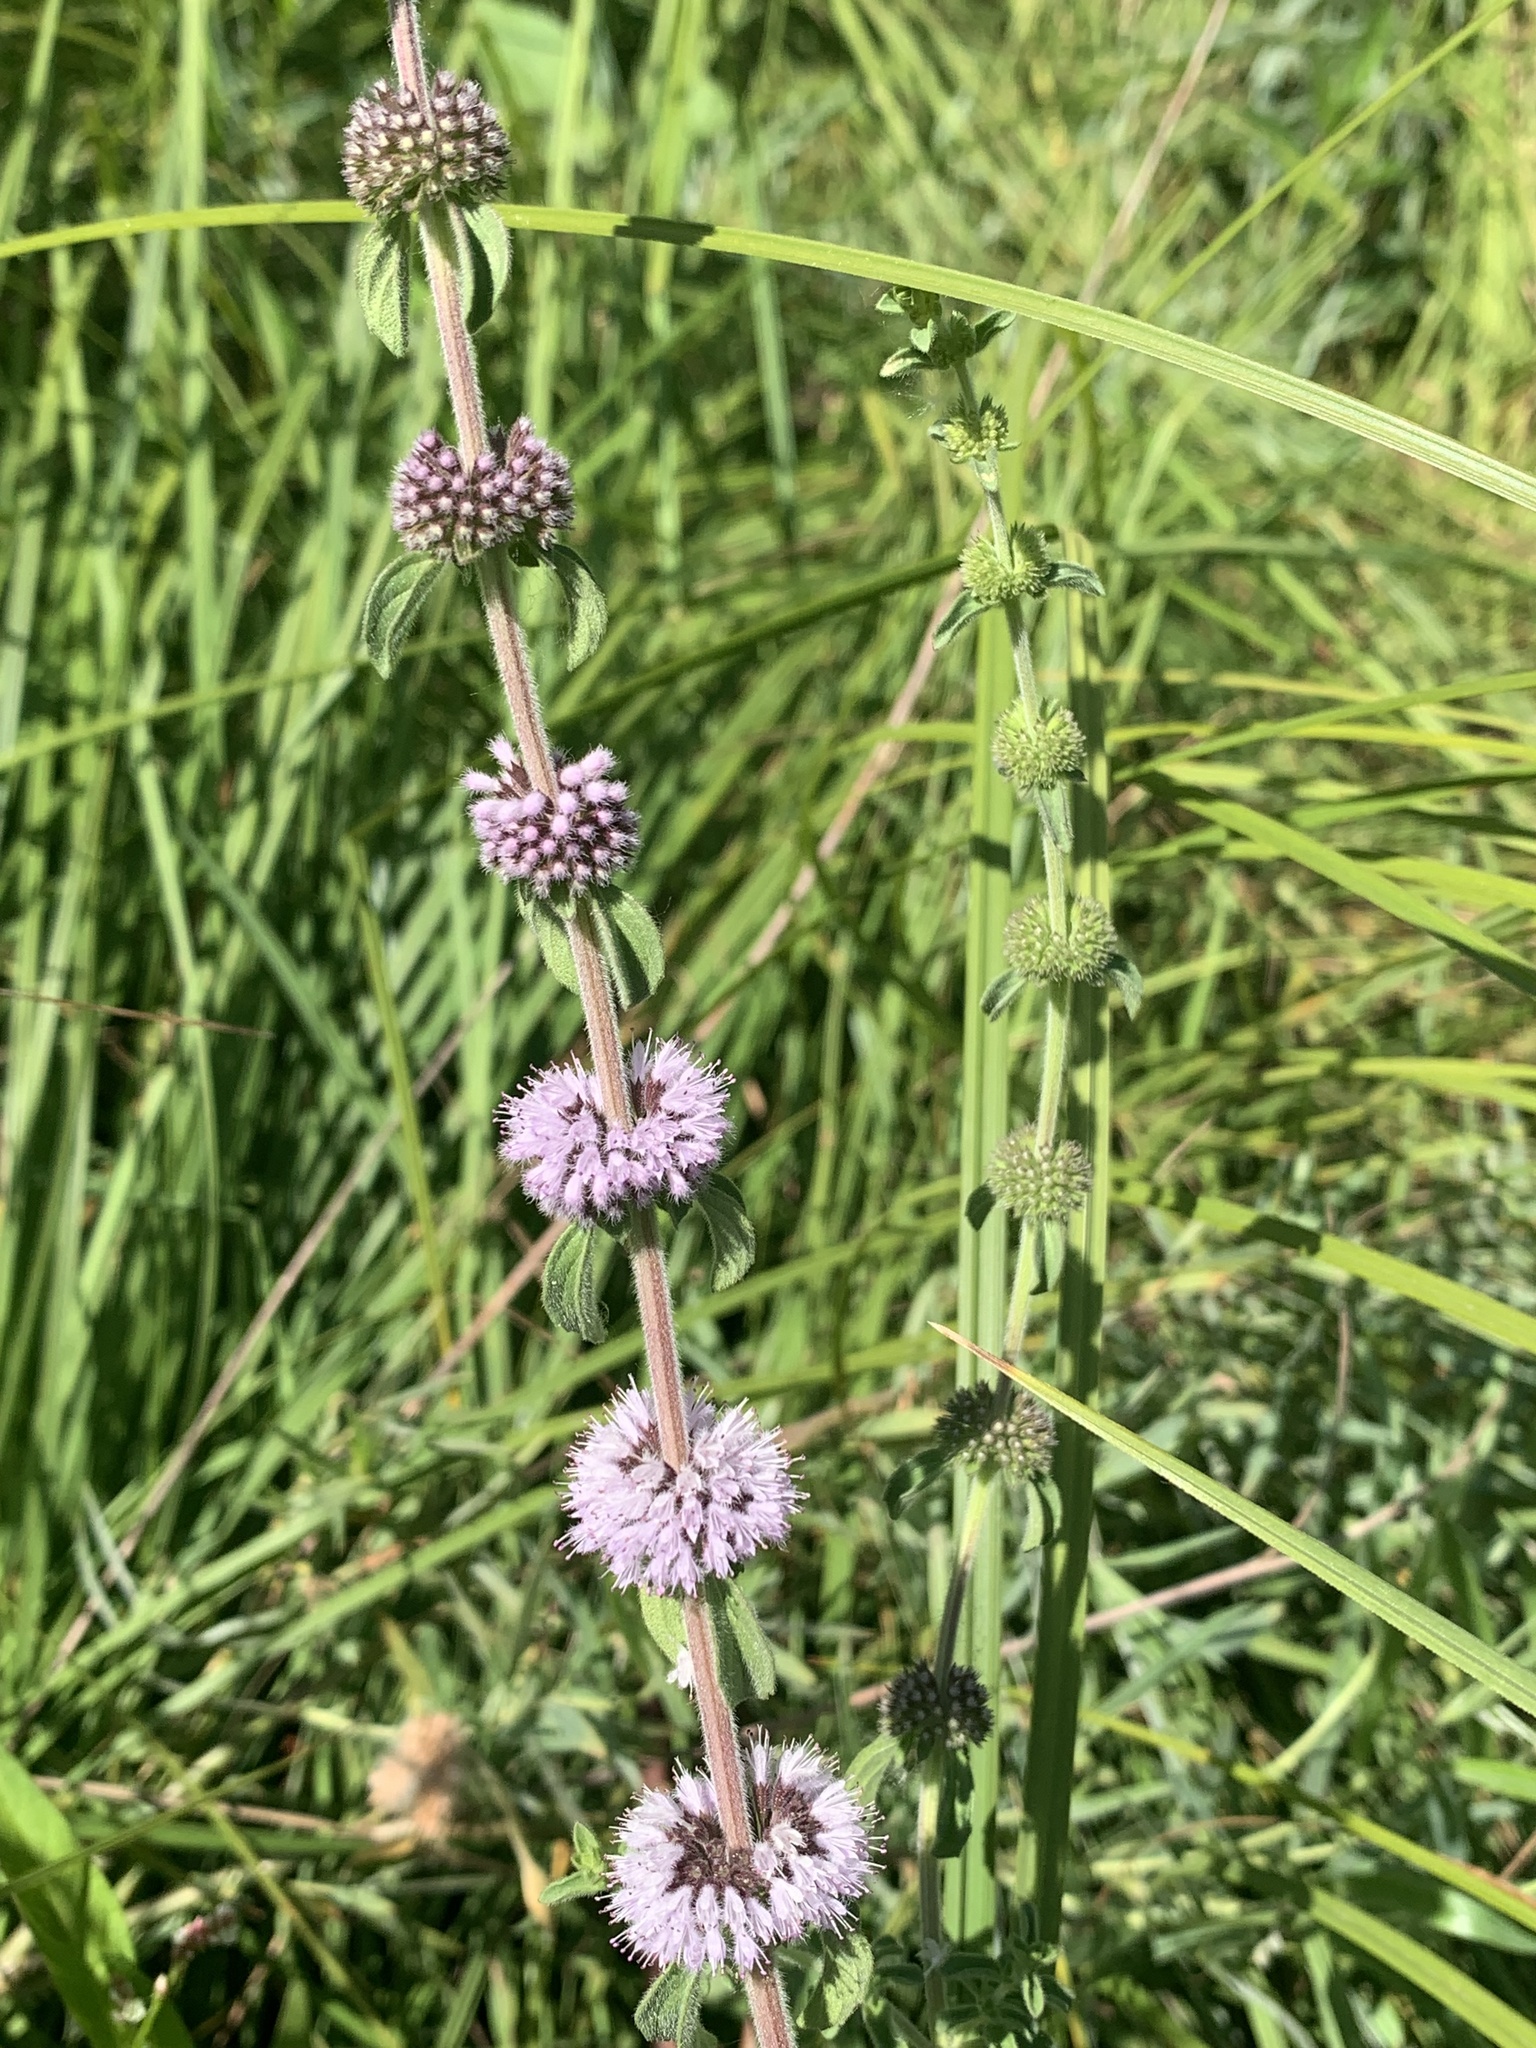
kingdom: Plantae
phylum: Tracheophyta
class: Magnoliopsida
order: Lamiales
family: Lamiaceae
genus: Mentha
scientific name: Mentha pulegium
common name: Pennyroyal
